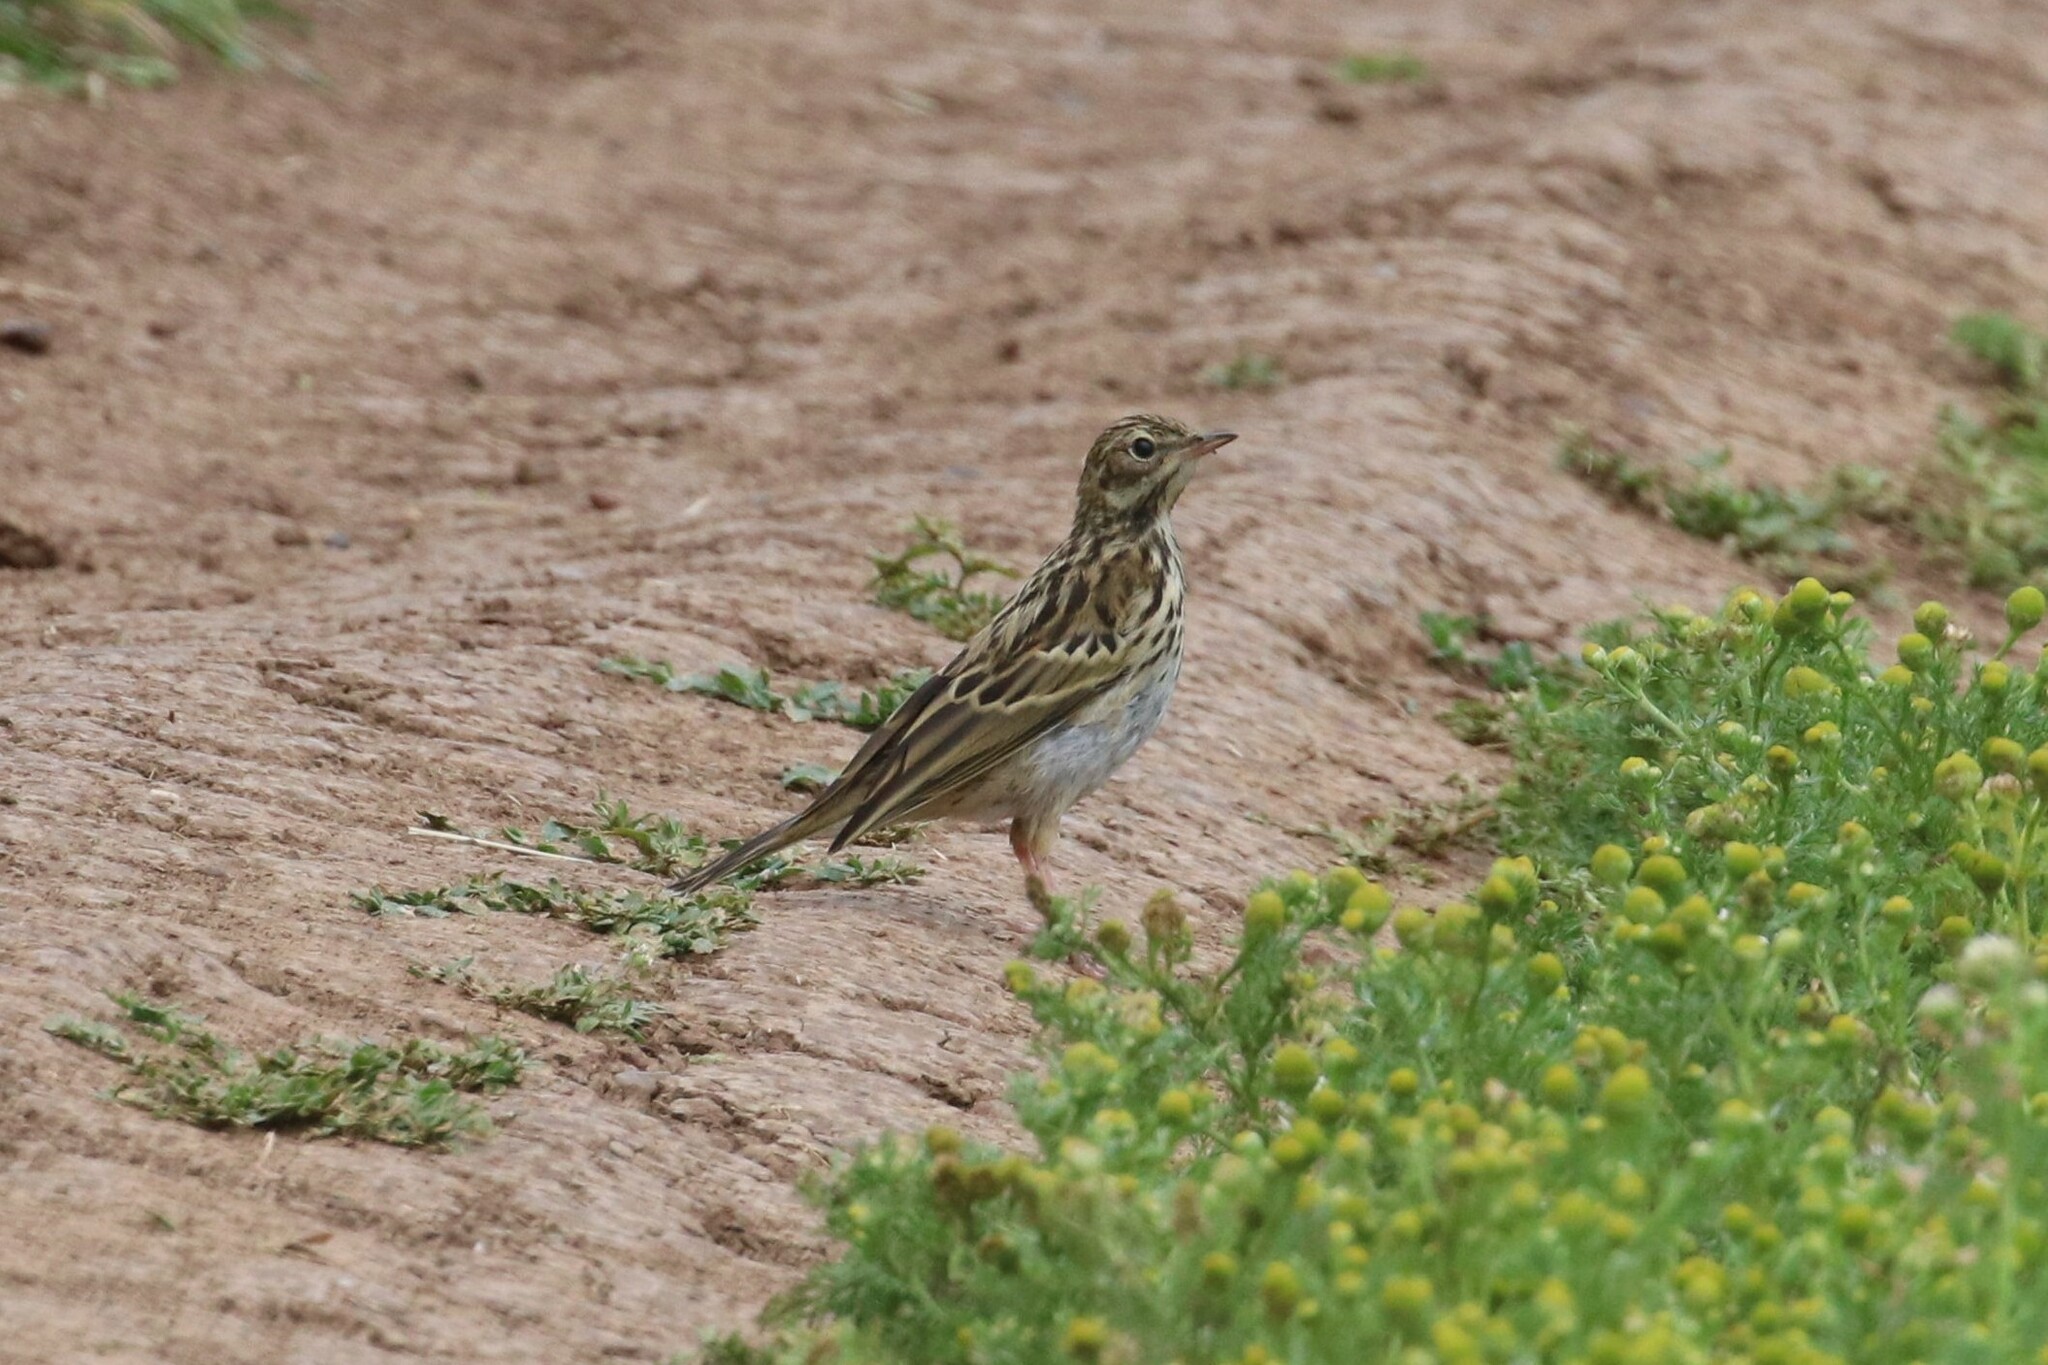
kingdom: Animalia
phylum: Chordata
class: Aves
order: Passeriformes
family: Motacillidae
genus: Anthus
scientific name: Anthus trivialis
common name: Tree pipit
